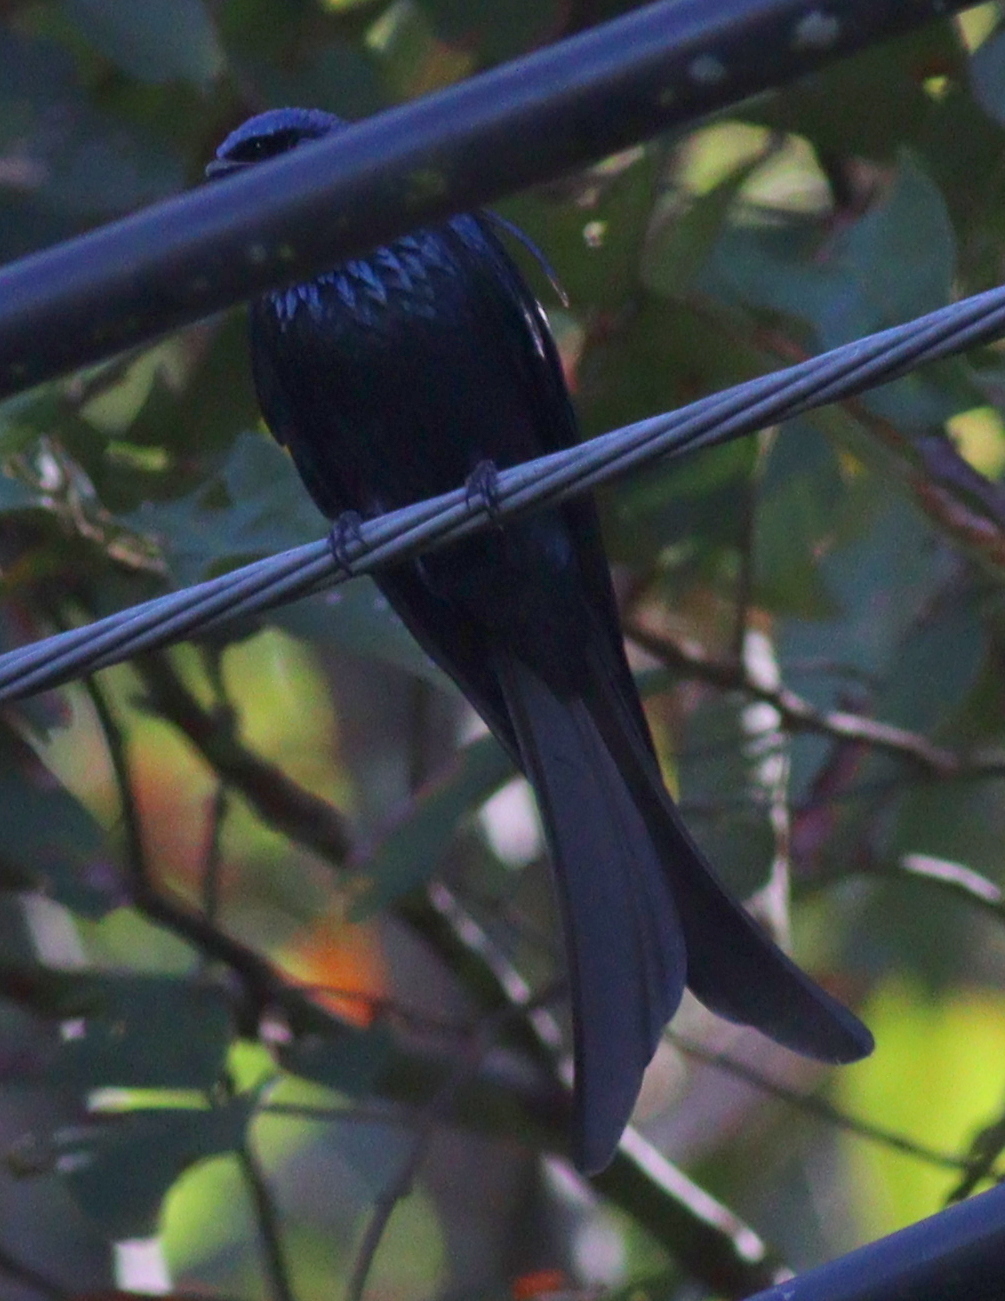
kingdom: Animalia
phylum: Chordata
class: Aves
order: Passeriformes
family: Dicruridae
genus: Dicrurus
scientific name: Dicrurus aeneus
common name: Bronzed drongo
